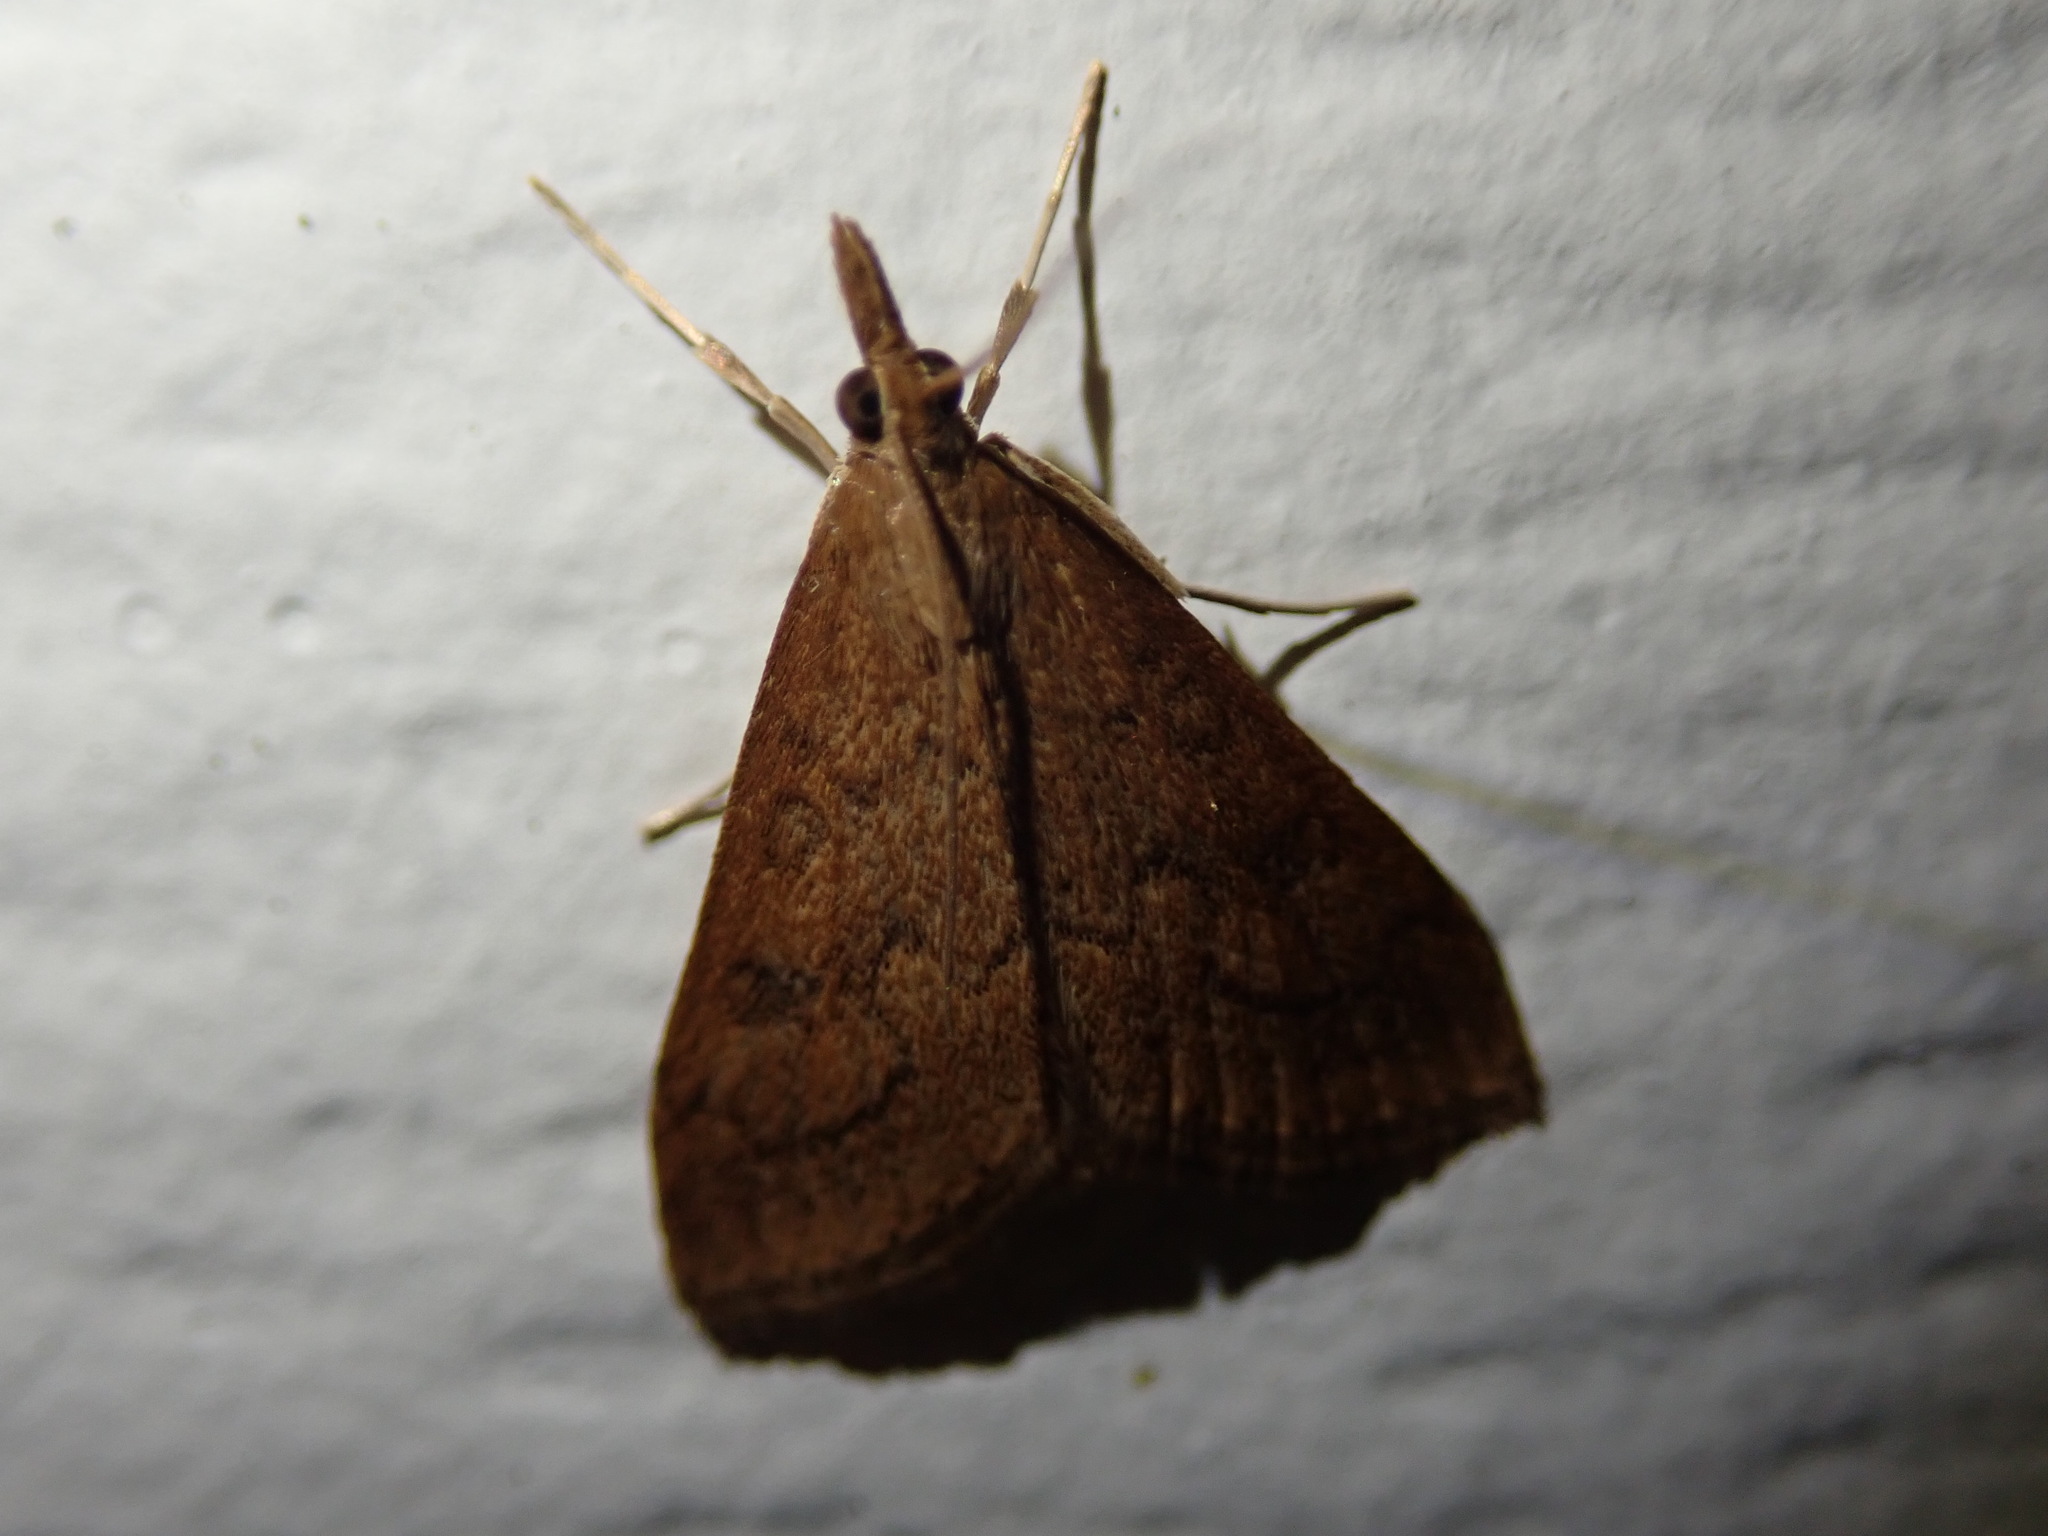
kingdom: Animalia
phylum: Arthropoda
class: Insecta
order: Lepidoptera
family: Crambidae
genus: Udea
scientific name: Udea rubigalis
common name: Celery leaftier moth
